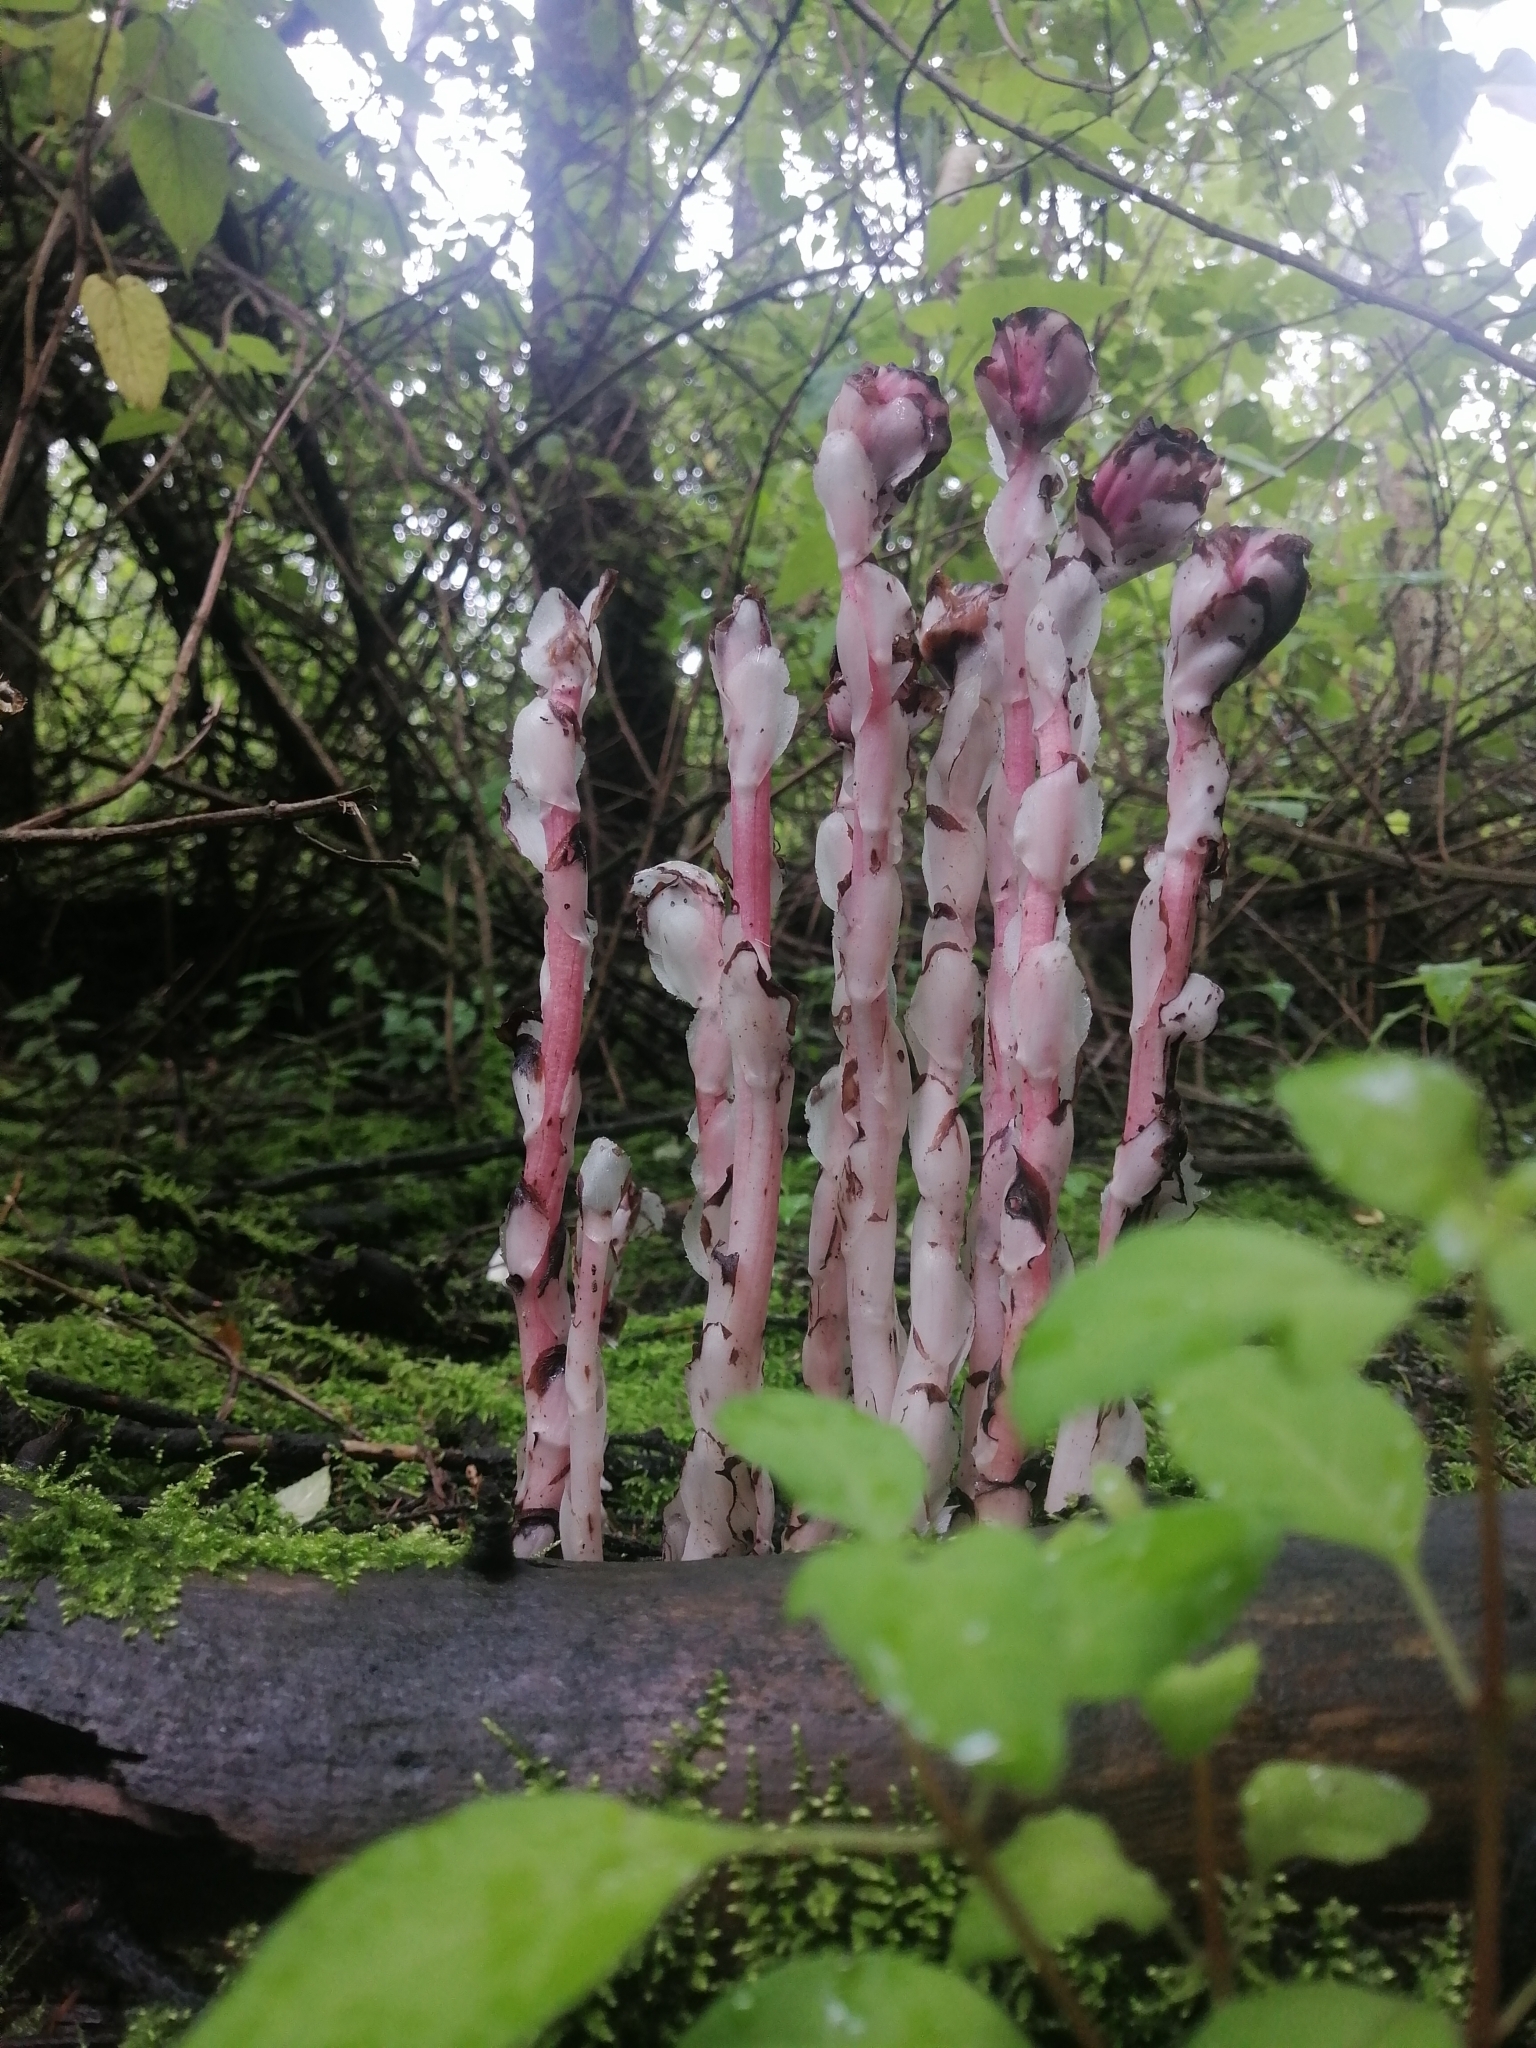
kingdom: Plantae
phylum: Tracheophyta
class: Magnoliopsida
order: Ericales
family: Ericaceae
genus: Monotropa
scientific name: Monotropa uniflora
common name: Convulsion root
